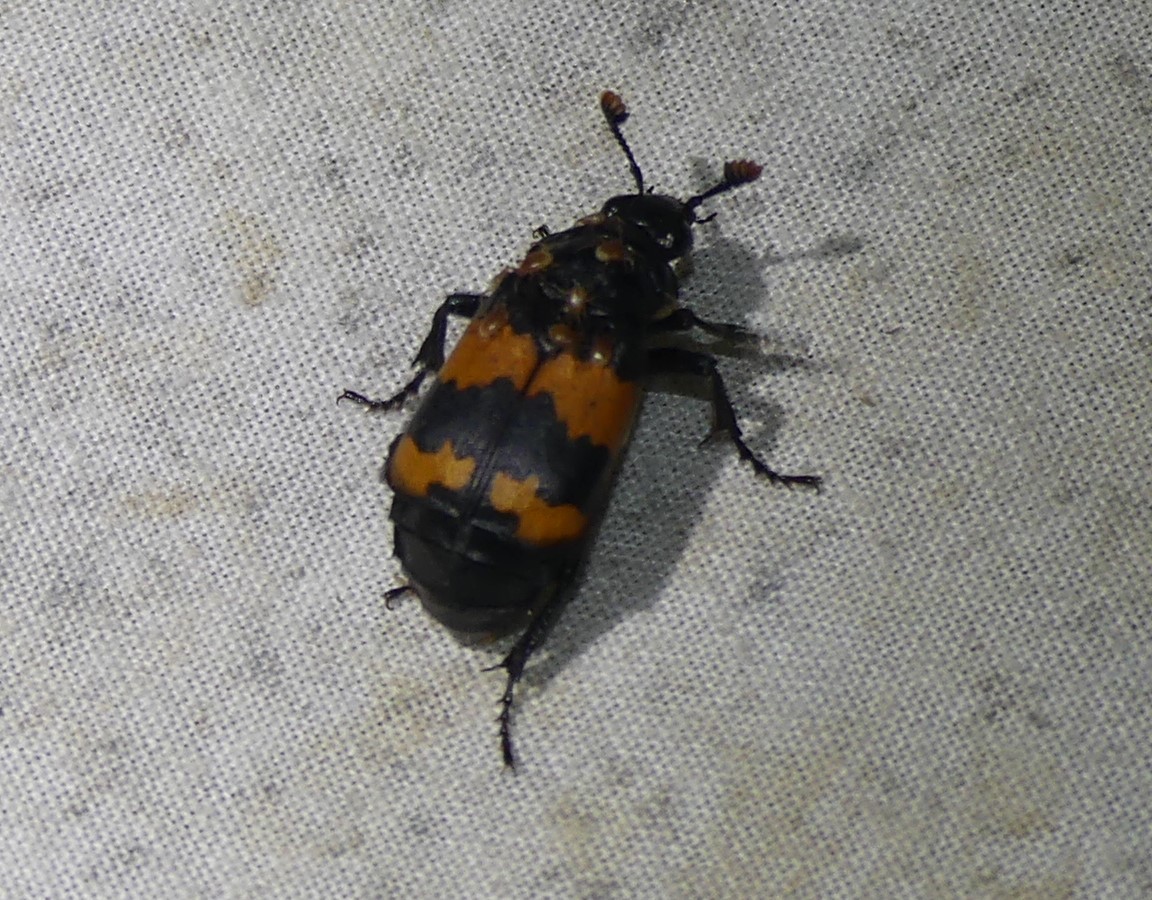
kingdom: Animalia
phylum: Arthropoda
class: Insecta
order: Coleoptera
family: Staphylinidae
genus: Nicrophorus
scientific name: Nicrophorus investigator
